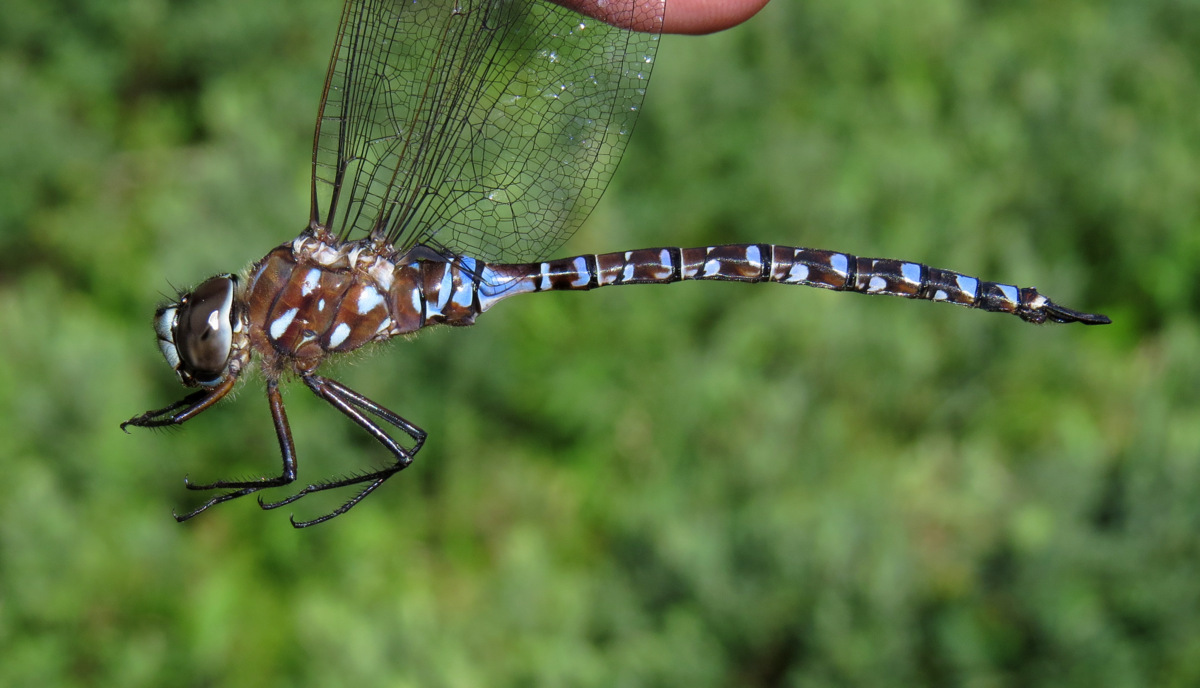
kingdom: Animalia
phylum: Arthropoda
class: Insecta
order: Odonata
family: Aeshnidae
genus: Aeshna
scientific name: Aeshna interrupta
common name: Variable darner
